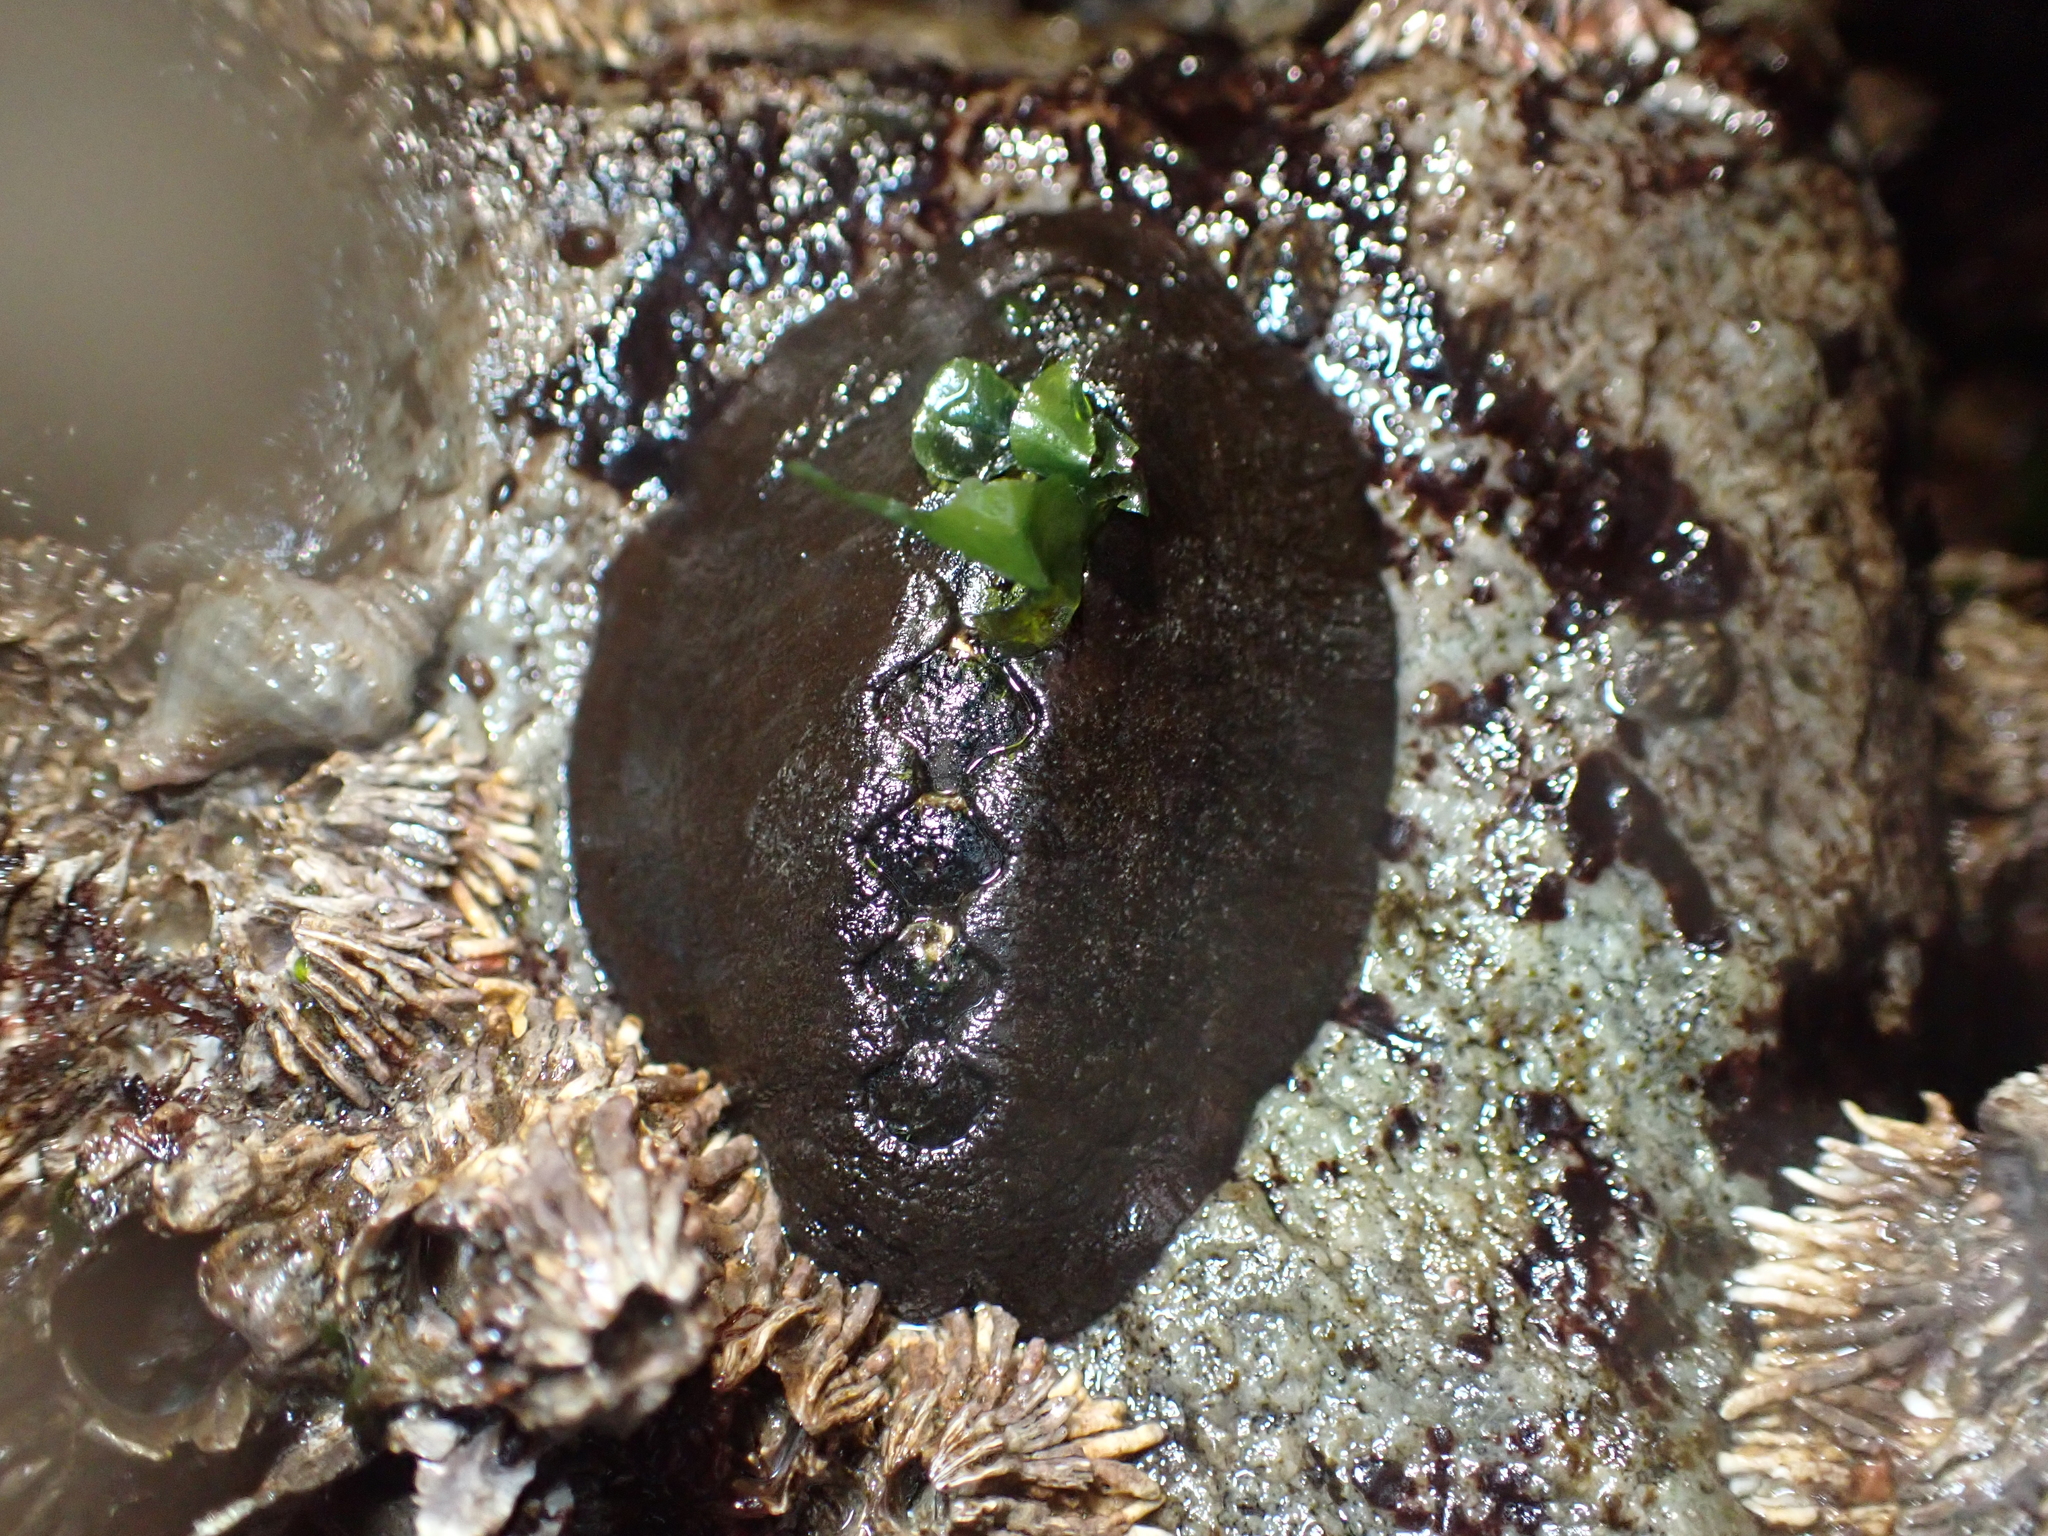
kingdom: Animalia
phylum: Mollusca
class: Polyplacophora
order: Chitonida
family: Mopaliidae
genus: Katharina
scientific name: Katharina tunicata
